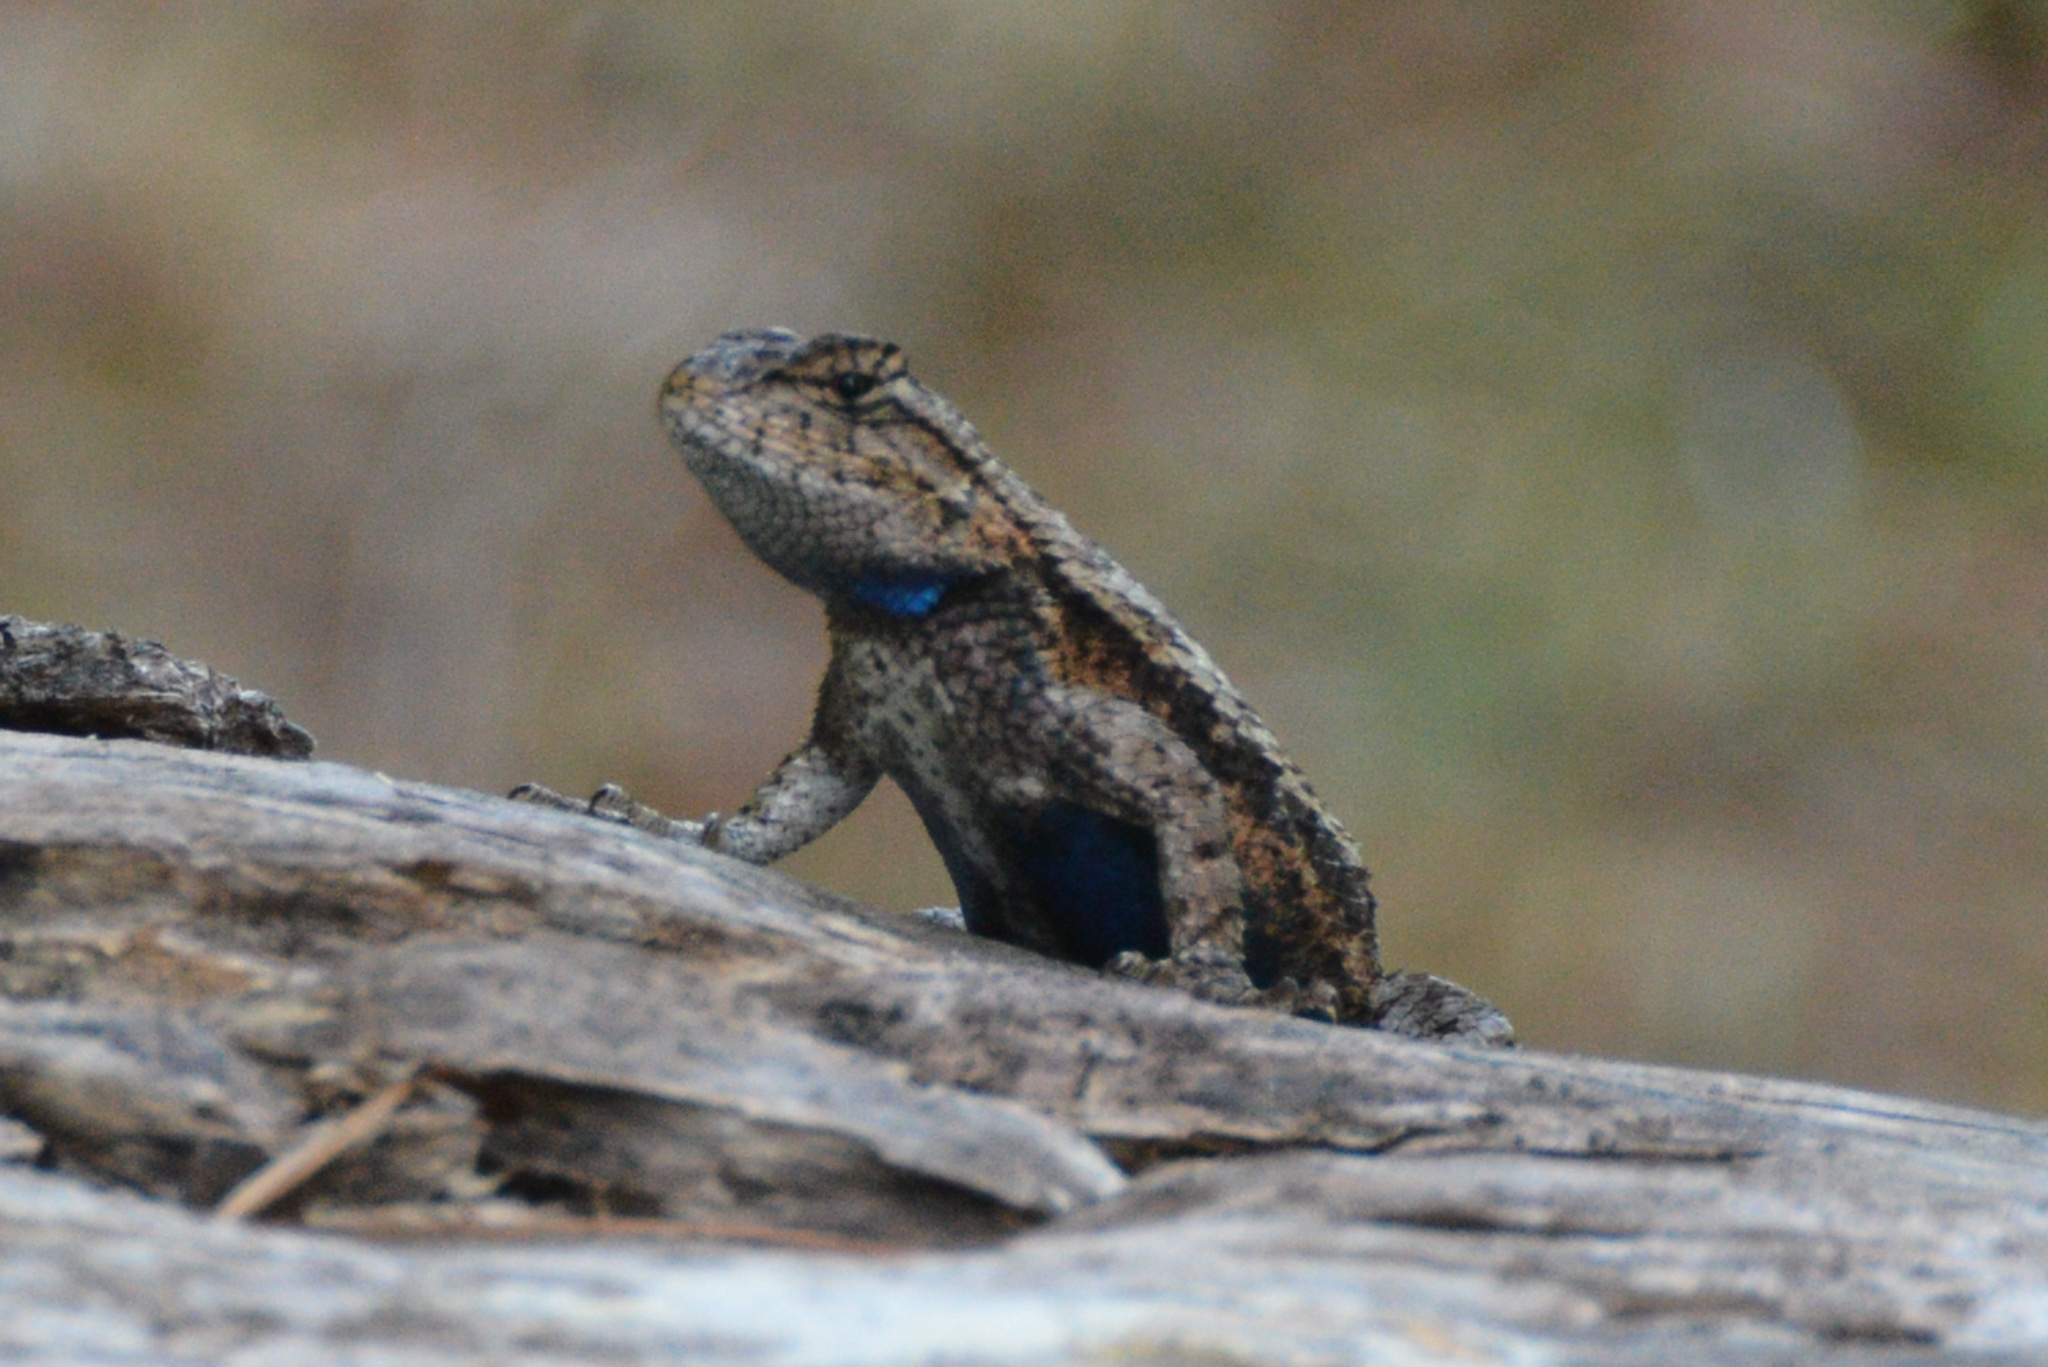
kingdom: Animalia
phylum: Chordata
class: Squamata
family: Phrynosomatidae
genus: Sceloporus
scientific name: Sceloporus undulatus
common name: Eastern fence lizard
